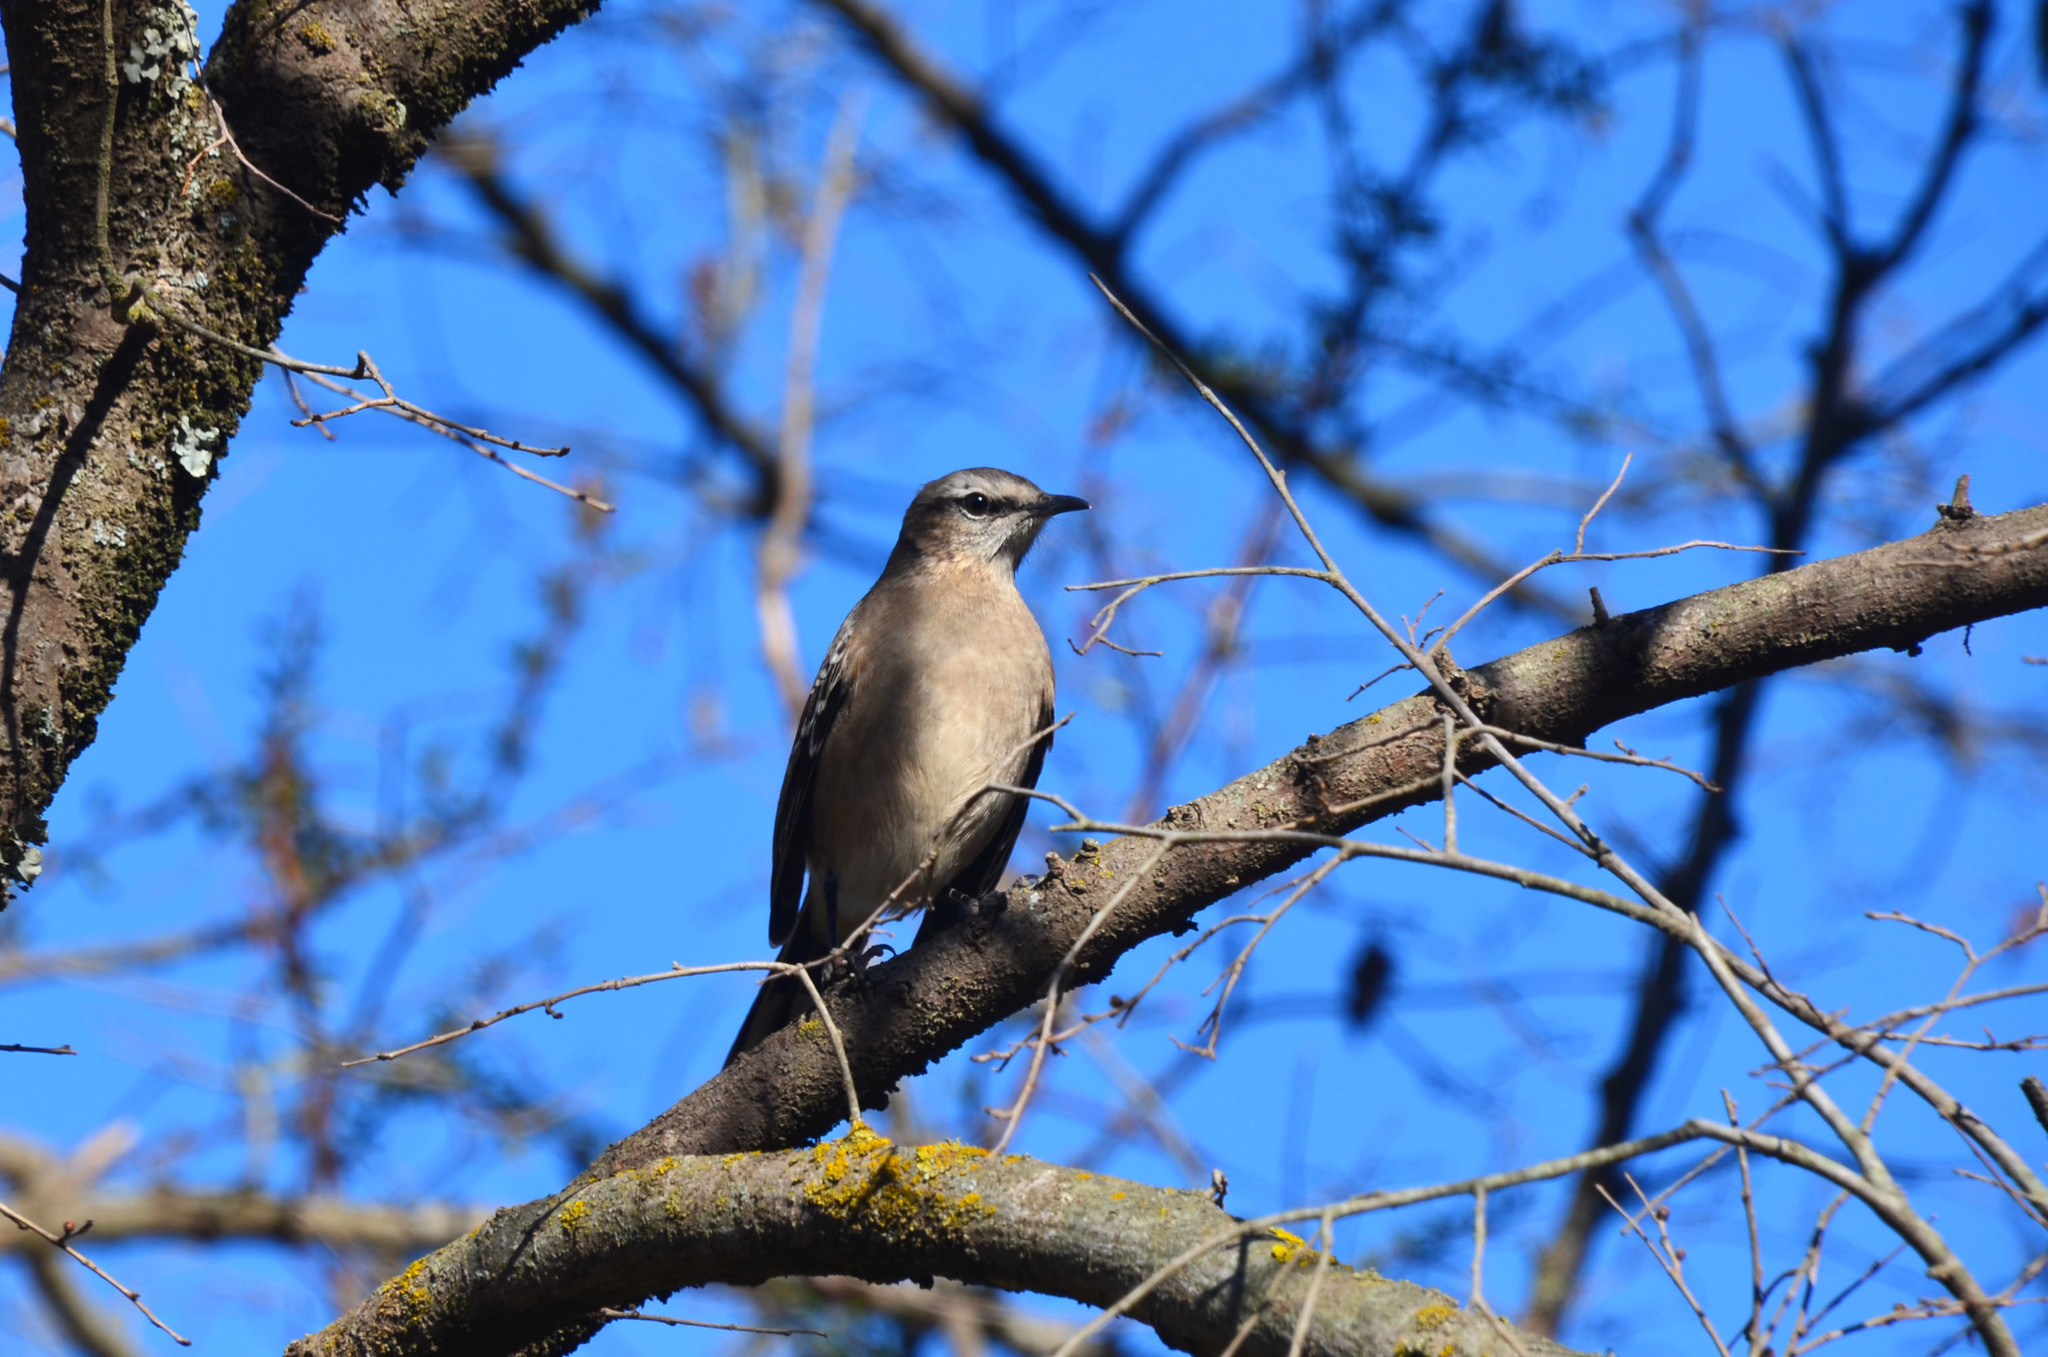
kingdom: Animalia
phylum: Chordata
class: Aves
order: Passeriformes
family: Mimidae
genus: Mimus
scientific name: Mimus patagonicus
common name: Patagonian mockingbird
